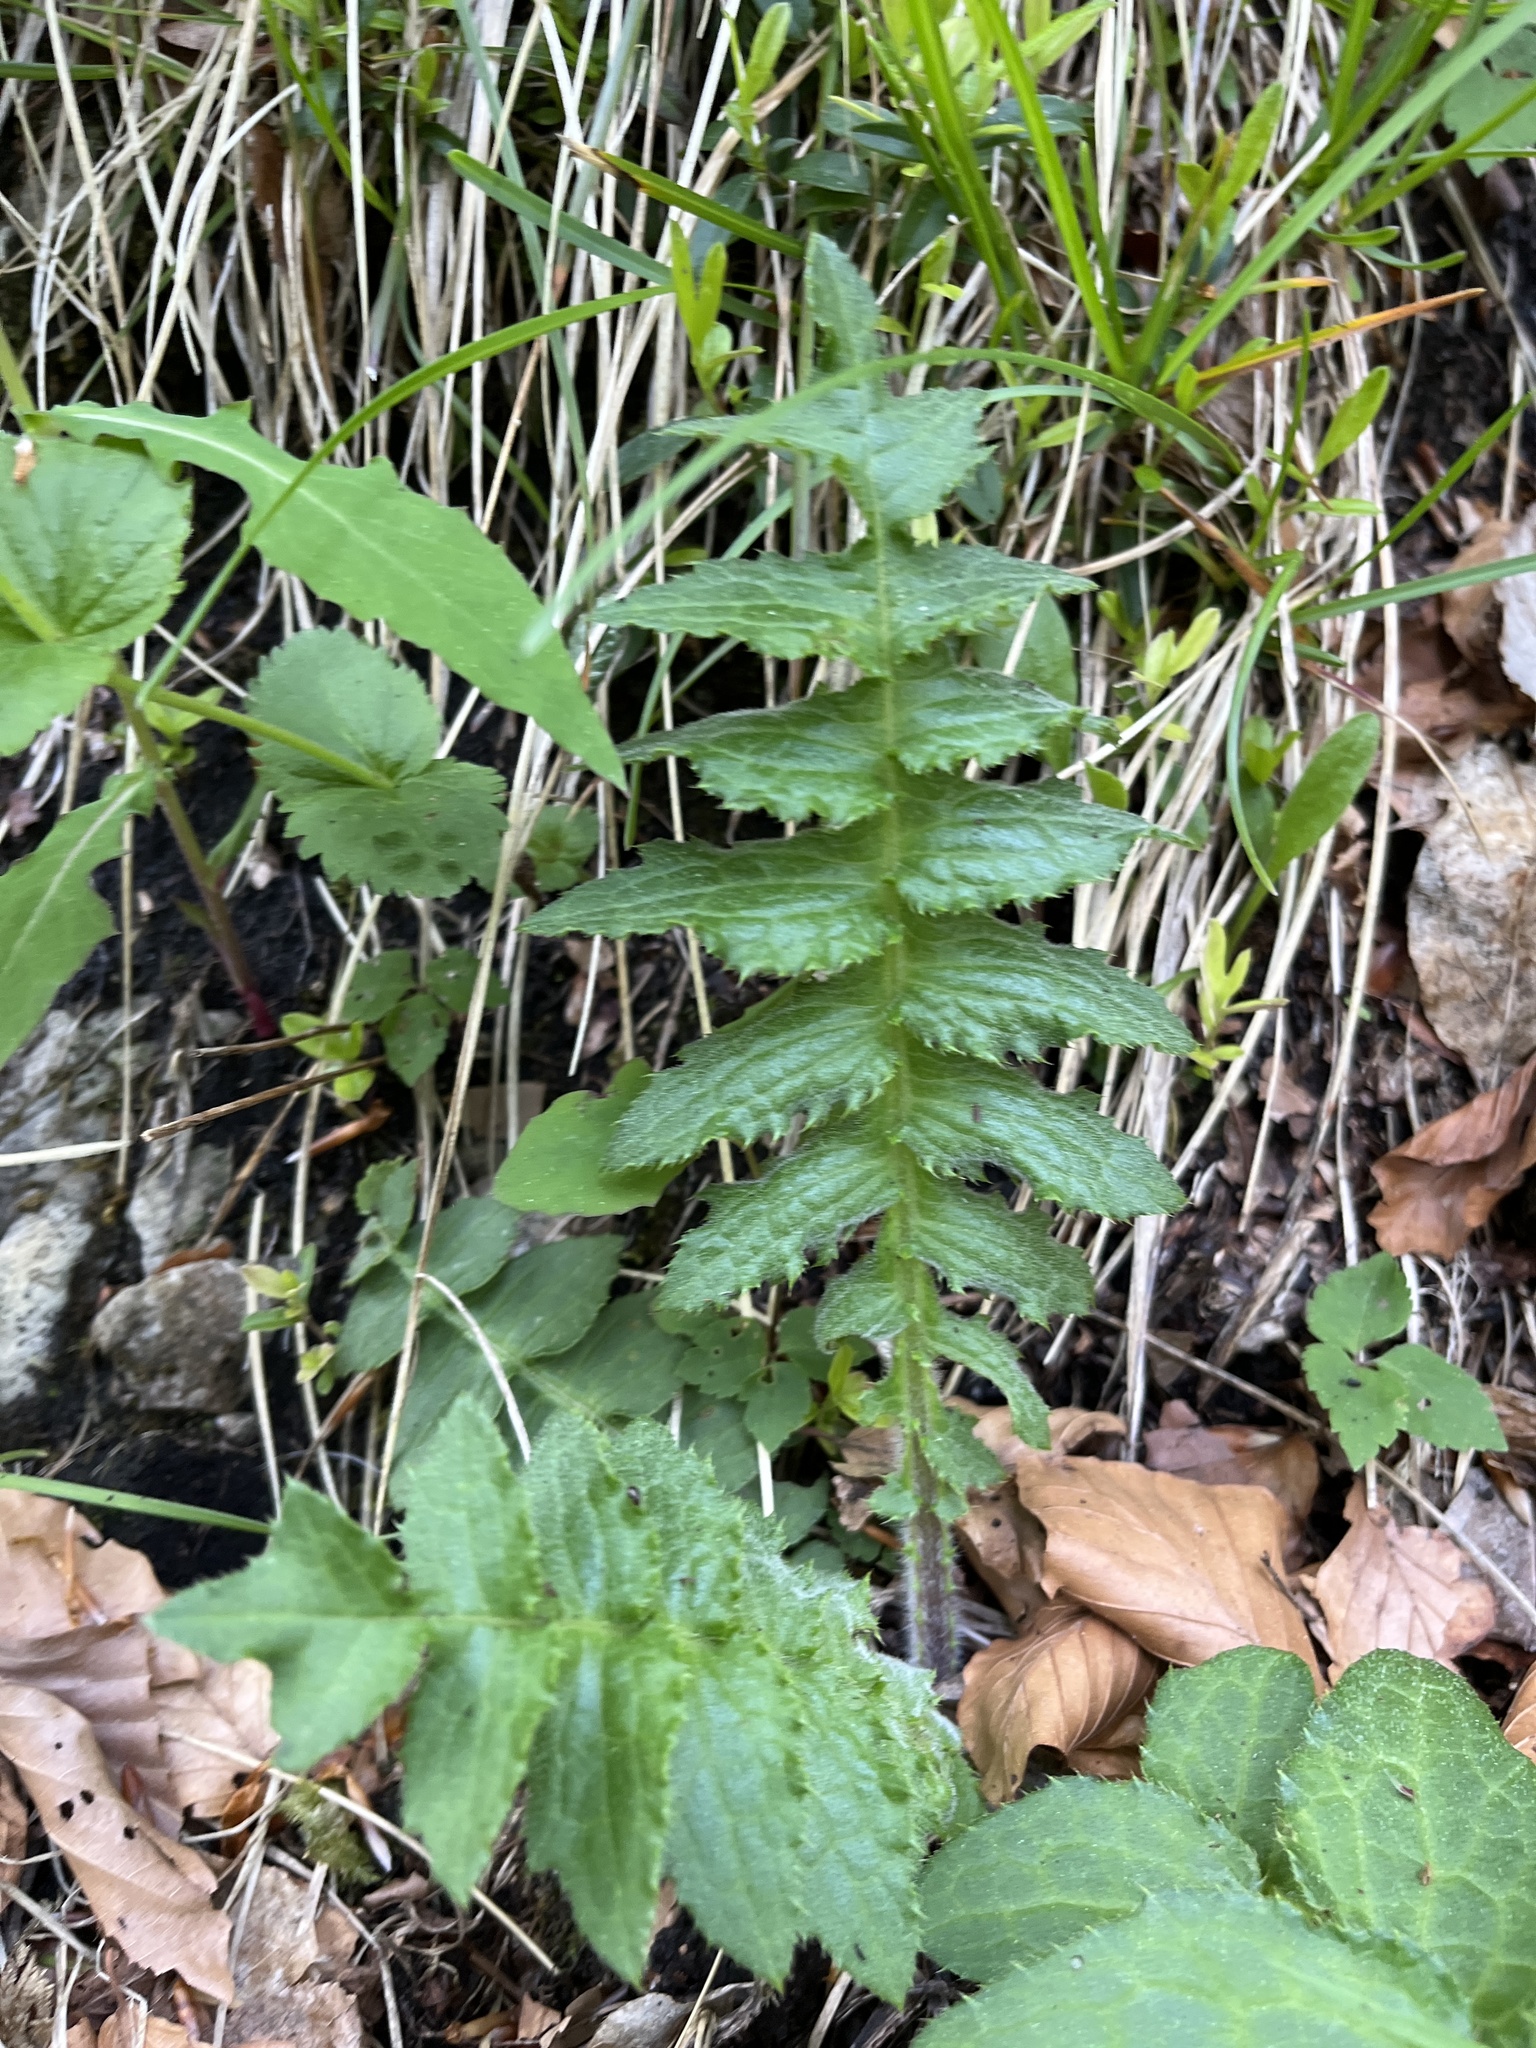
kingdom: Plantae
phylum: Tracheophyta
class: Magnoliopsida
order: Asterales
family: Asteraceae
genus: Cirsium
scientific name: Cirsium erisithales
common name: Yellow thistle
